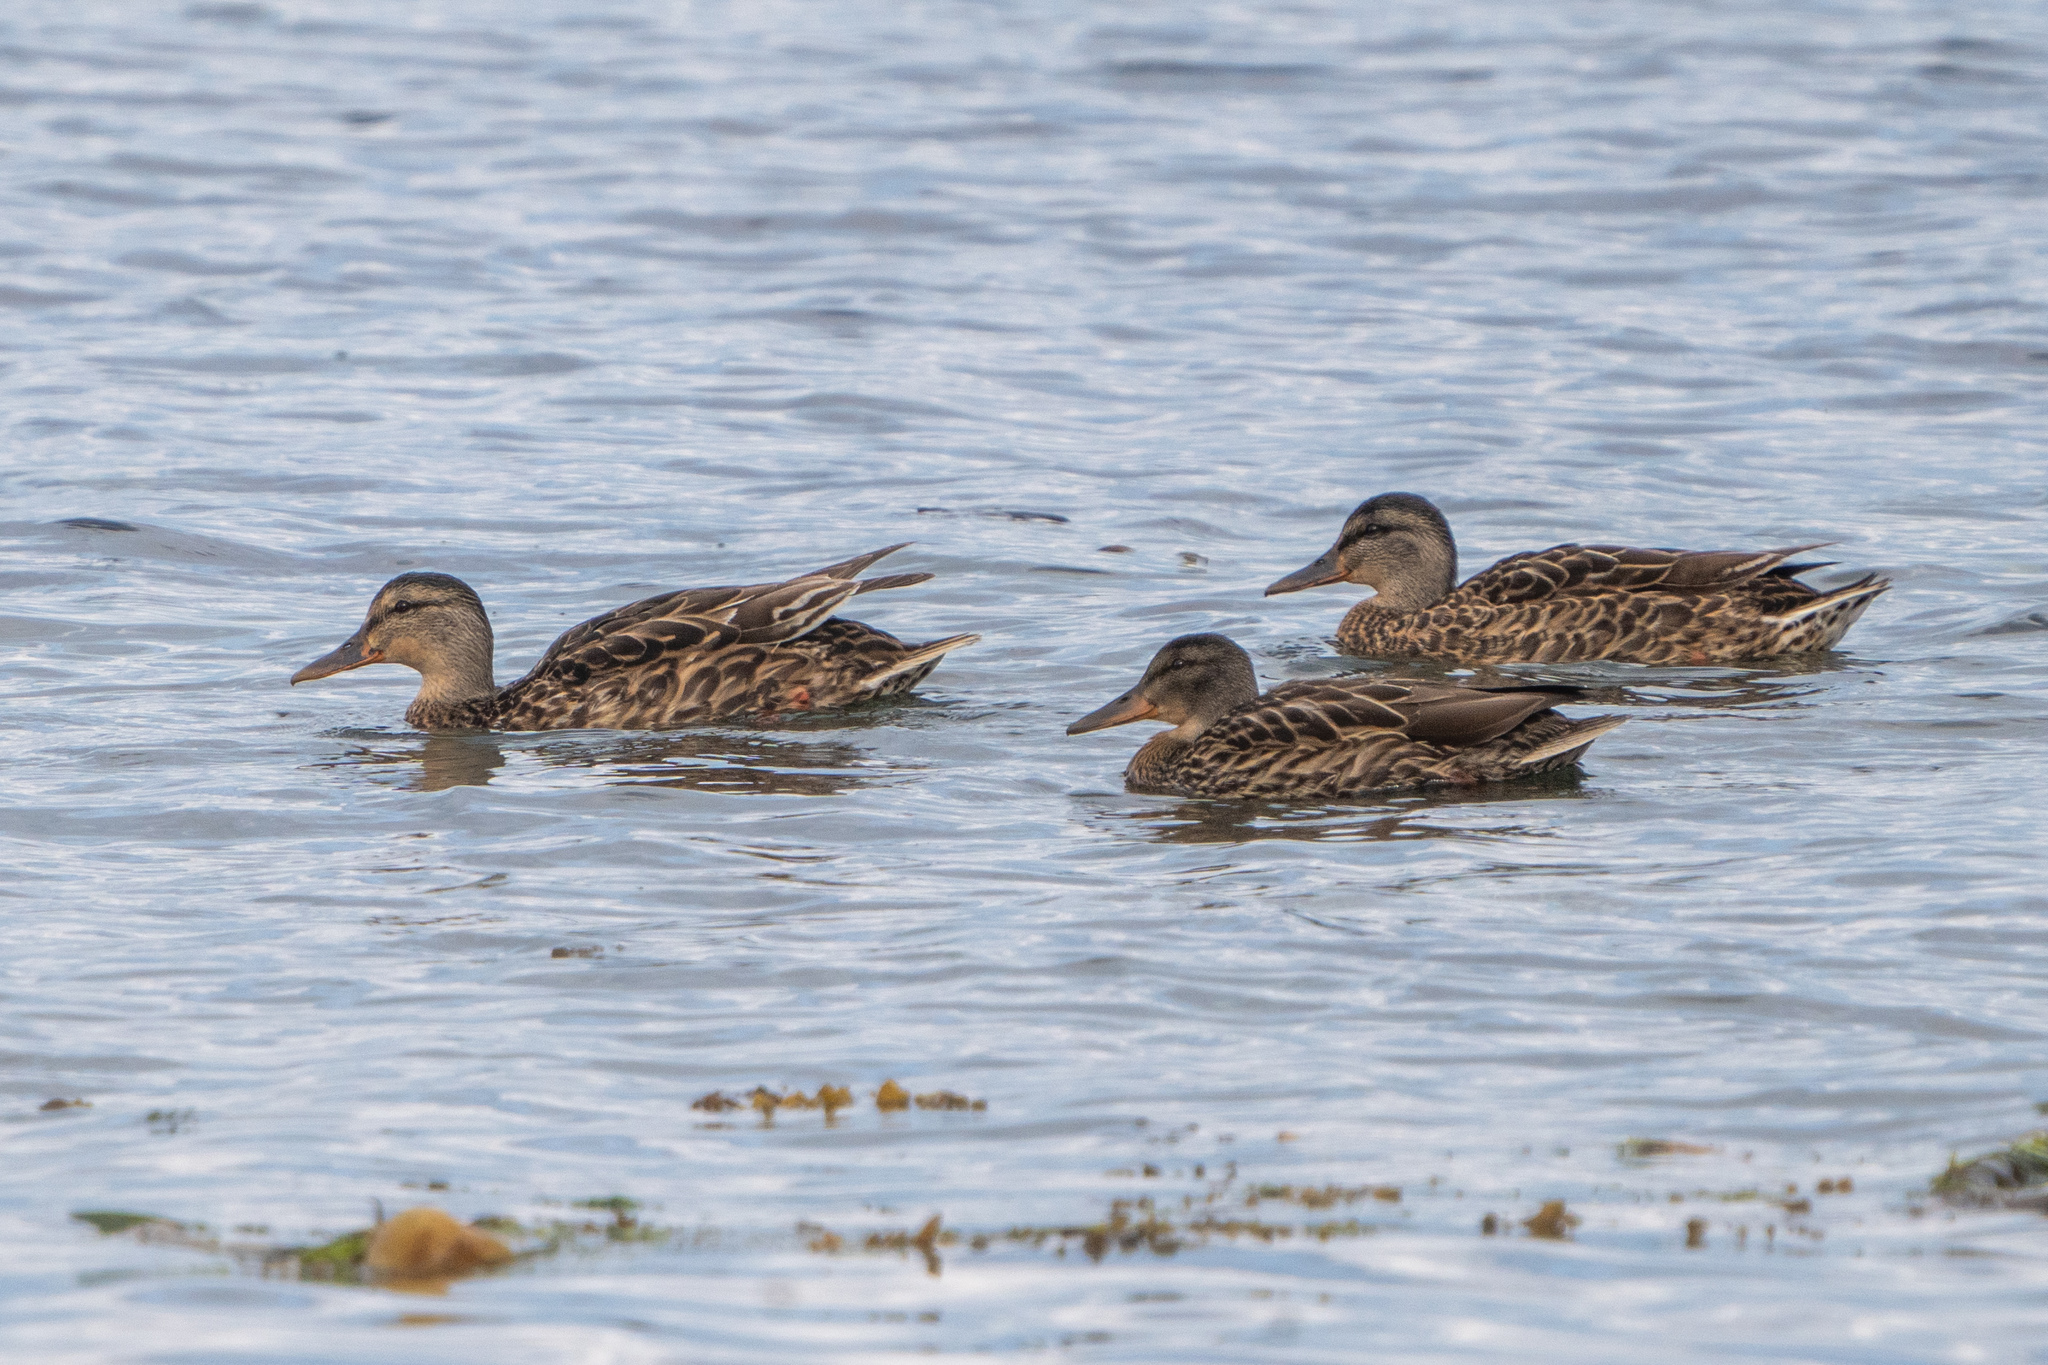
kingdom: Animalia
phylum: Chordata
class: Aves
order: Anseriformes
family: Anatidae
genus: Anas
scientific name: Anas platyrhynchos
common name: Mallard
